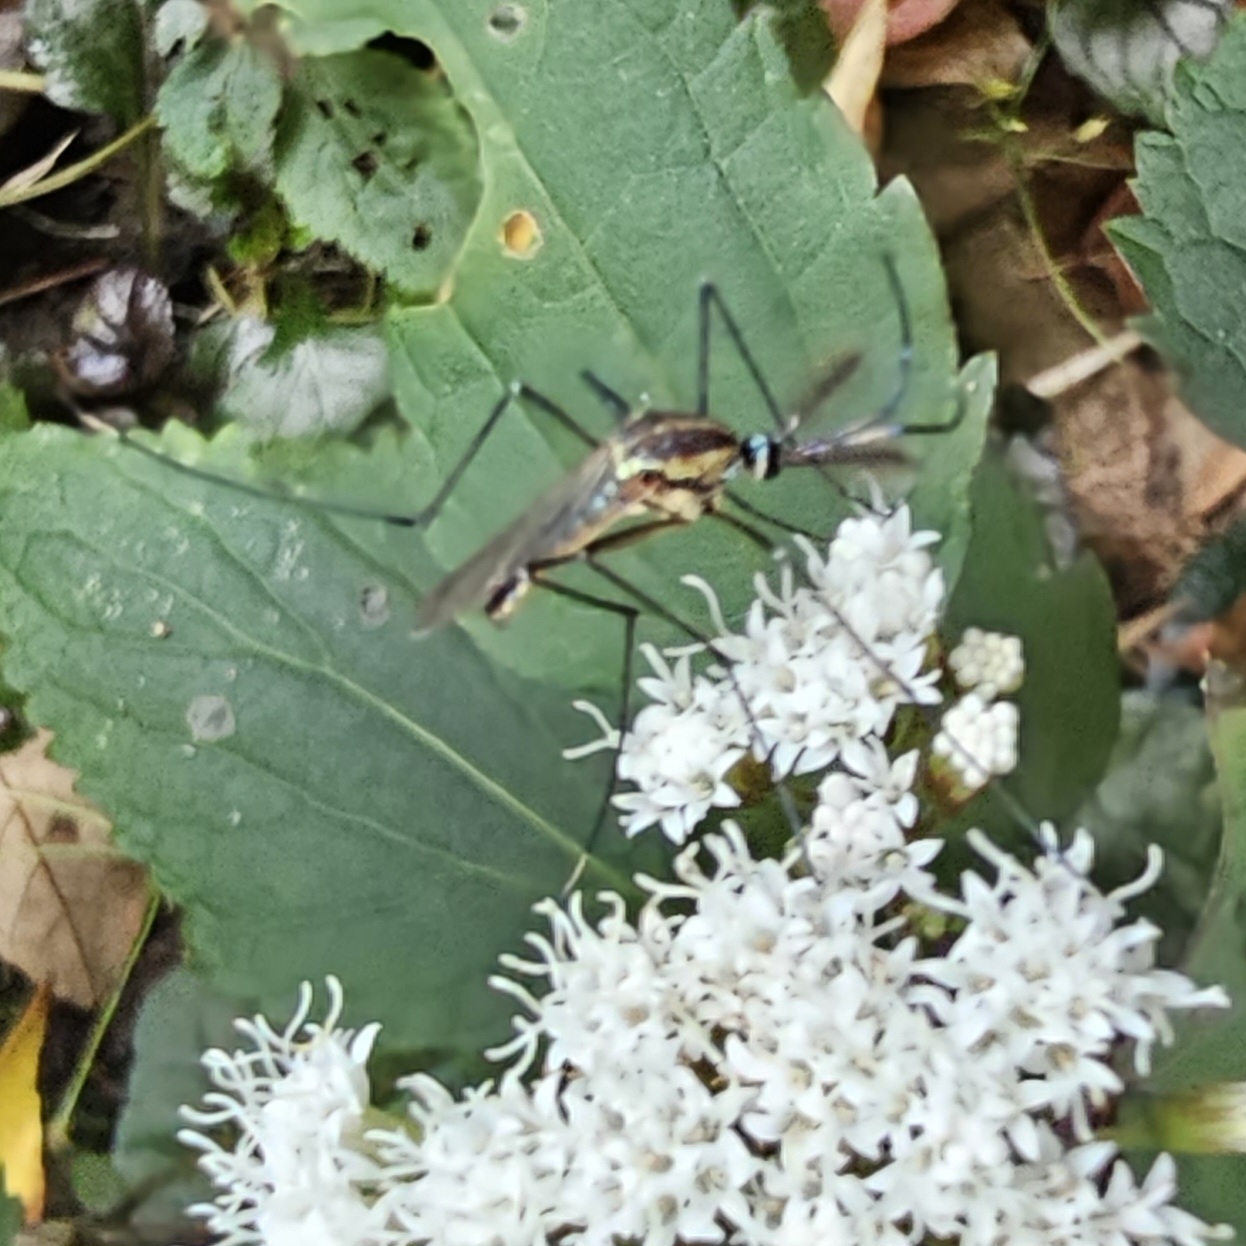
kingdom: Animalia
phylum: Arthropoda
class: Insecta
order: Diptera
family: Culicidae
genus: Toxorhynchites
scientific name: Toxorhynchites rutilus
